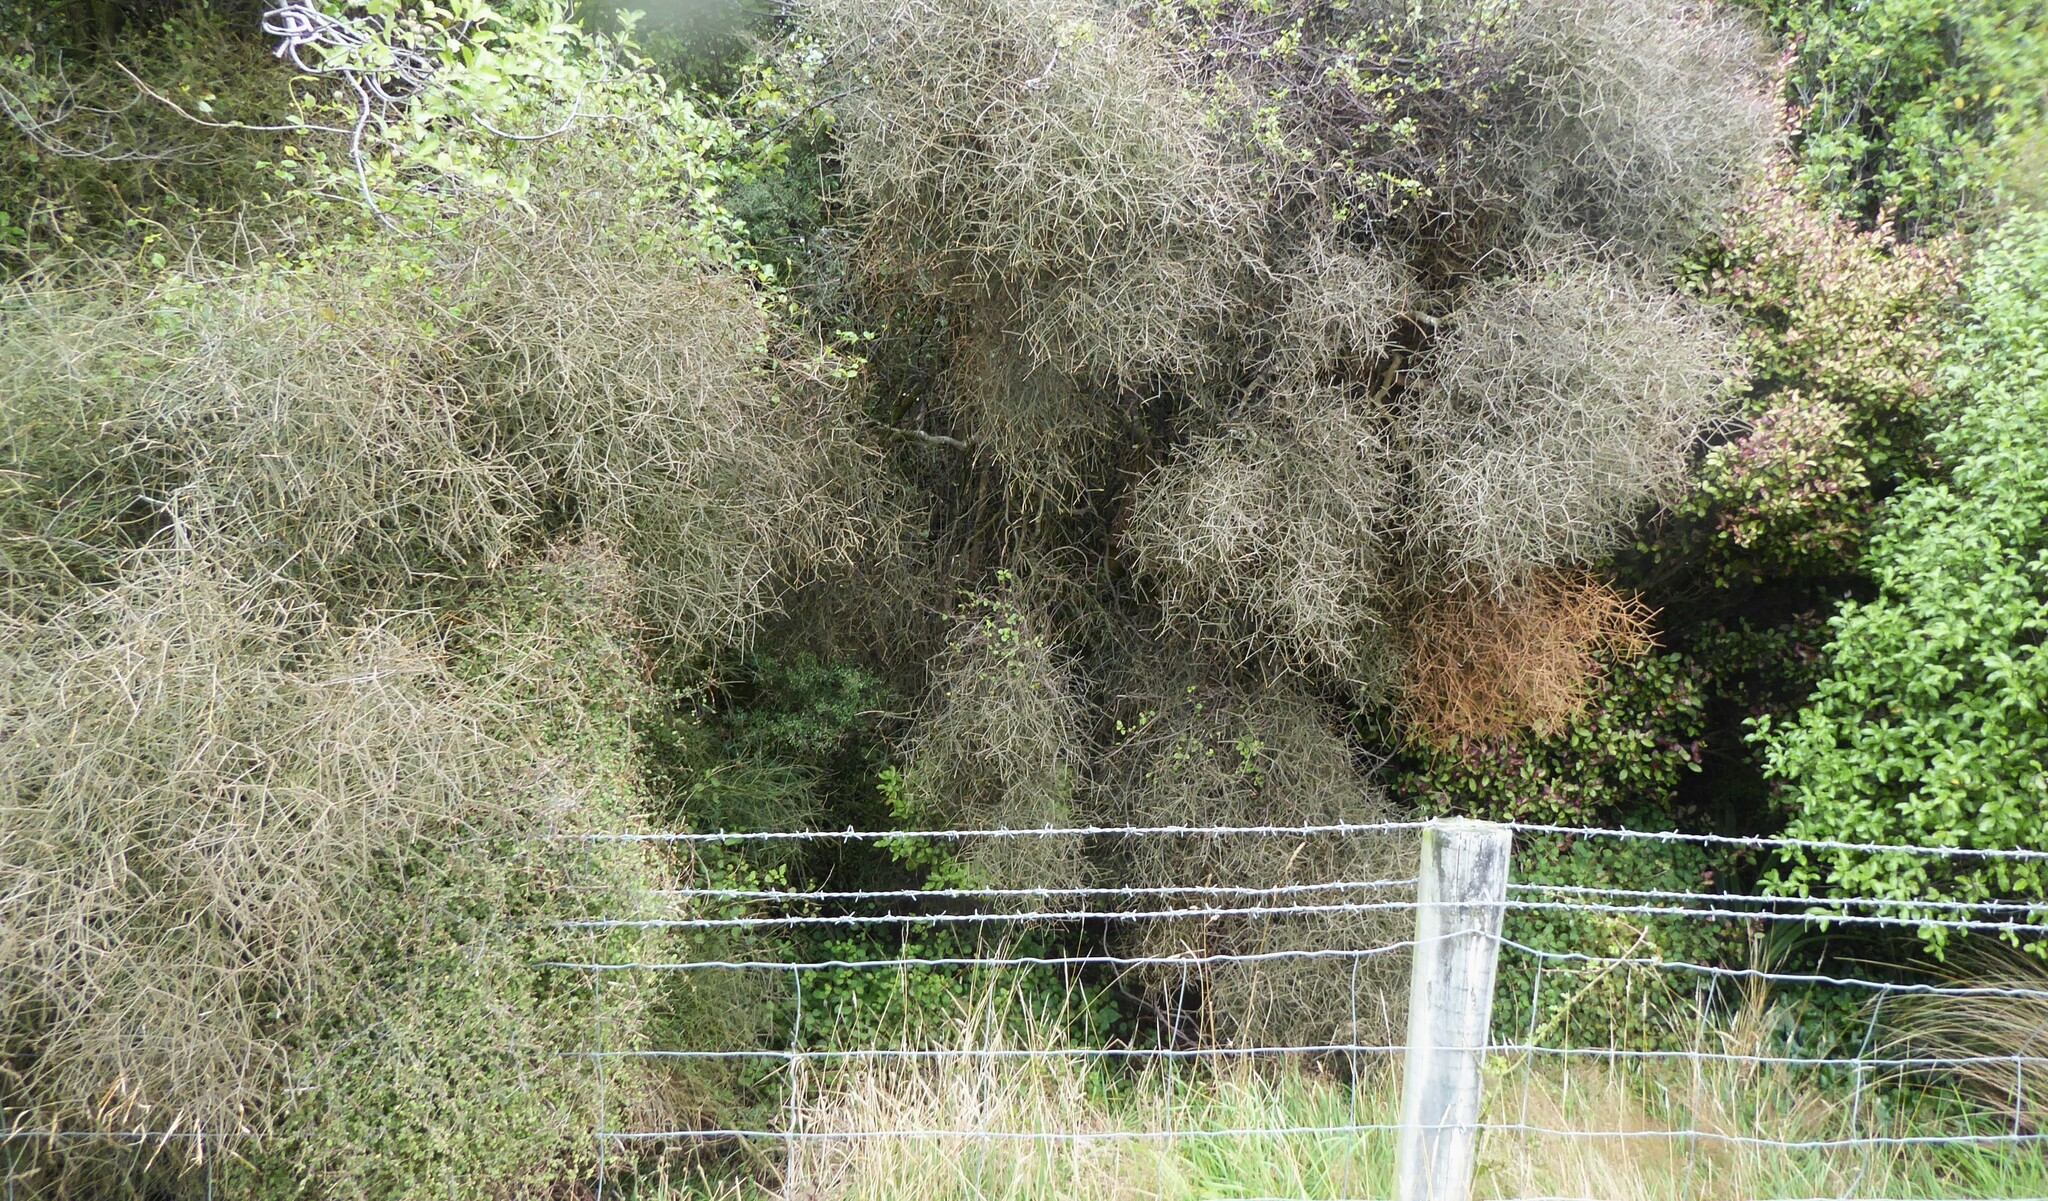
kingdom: Plantae
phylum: Tracheophyta
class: Magnoliopsida
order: Malpighiales
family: Violaceae
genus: Melicytus
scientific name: Melicytus flexuosus
